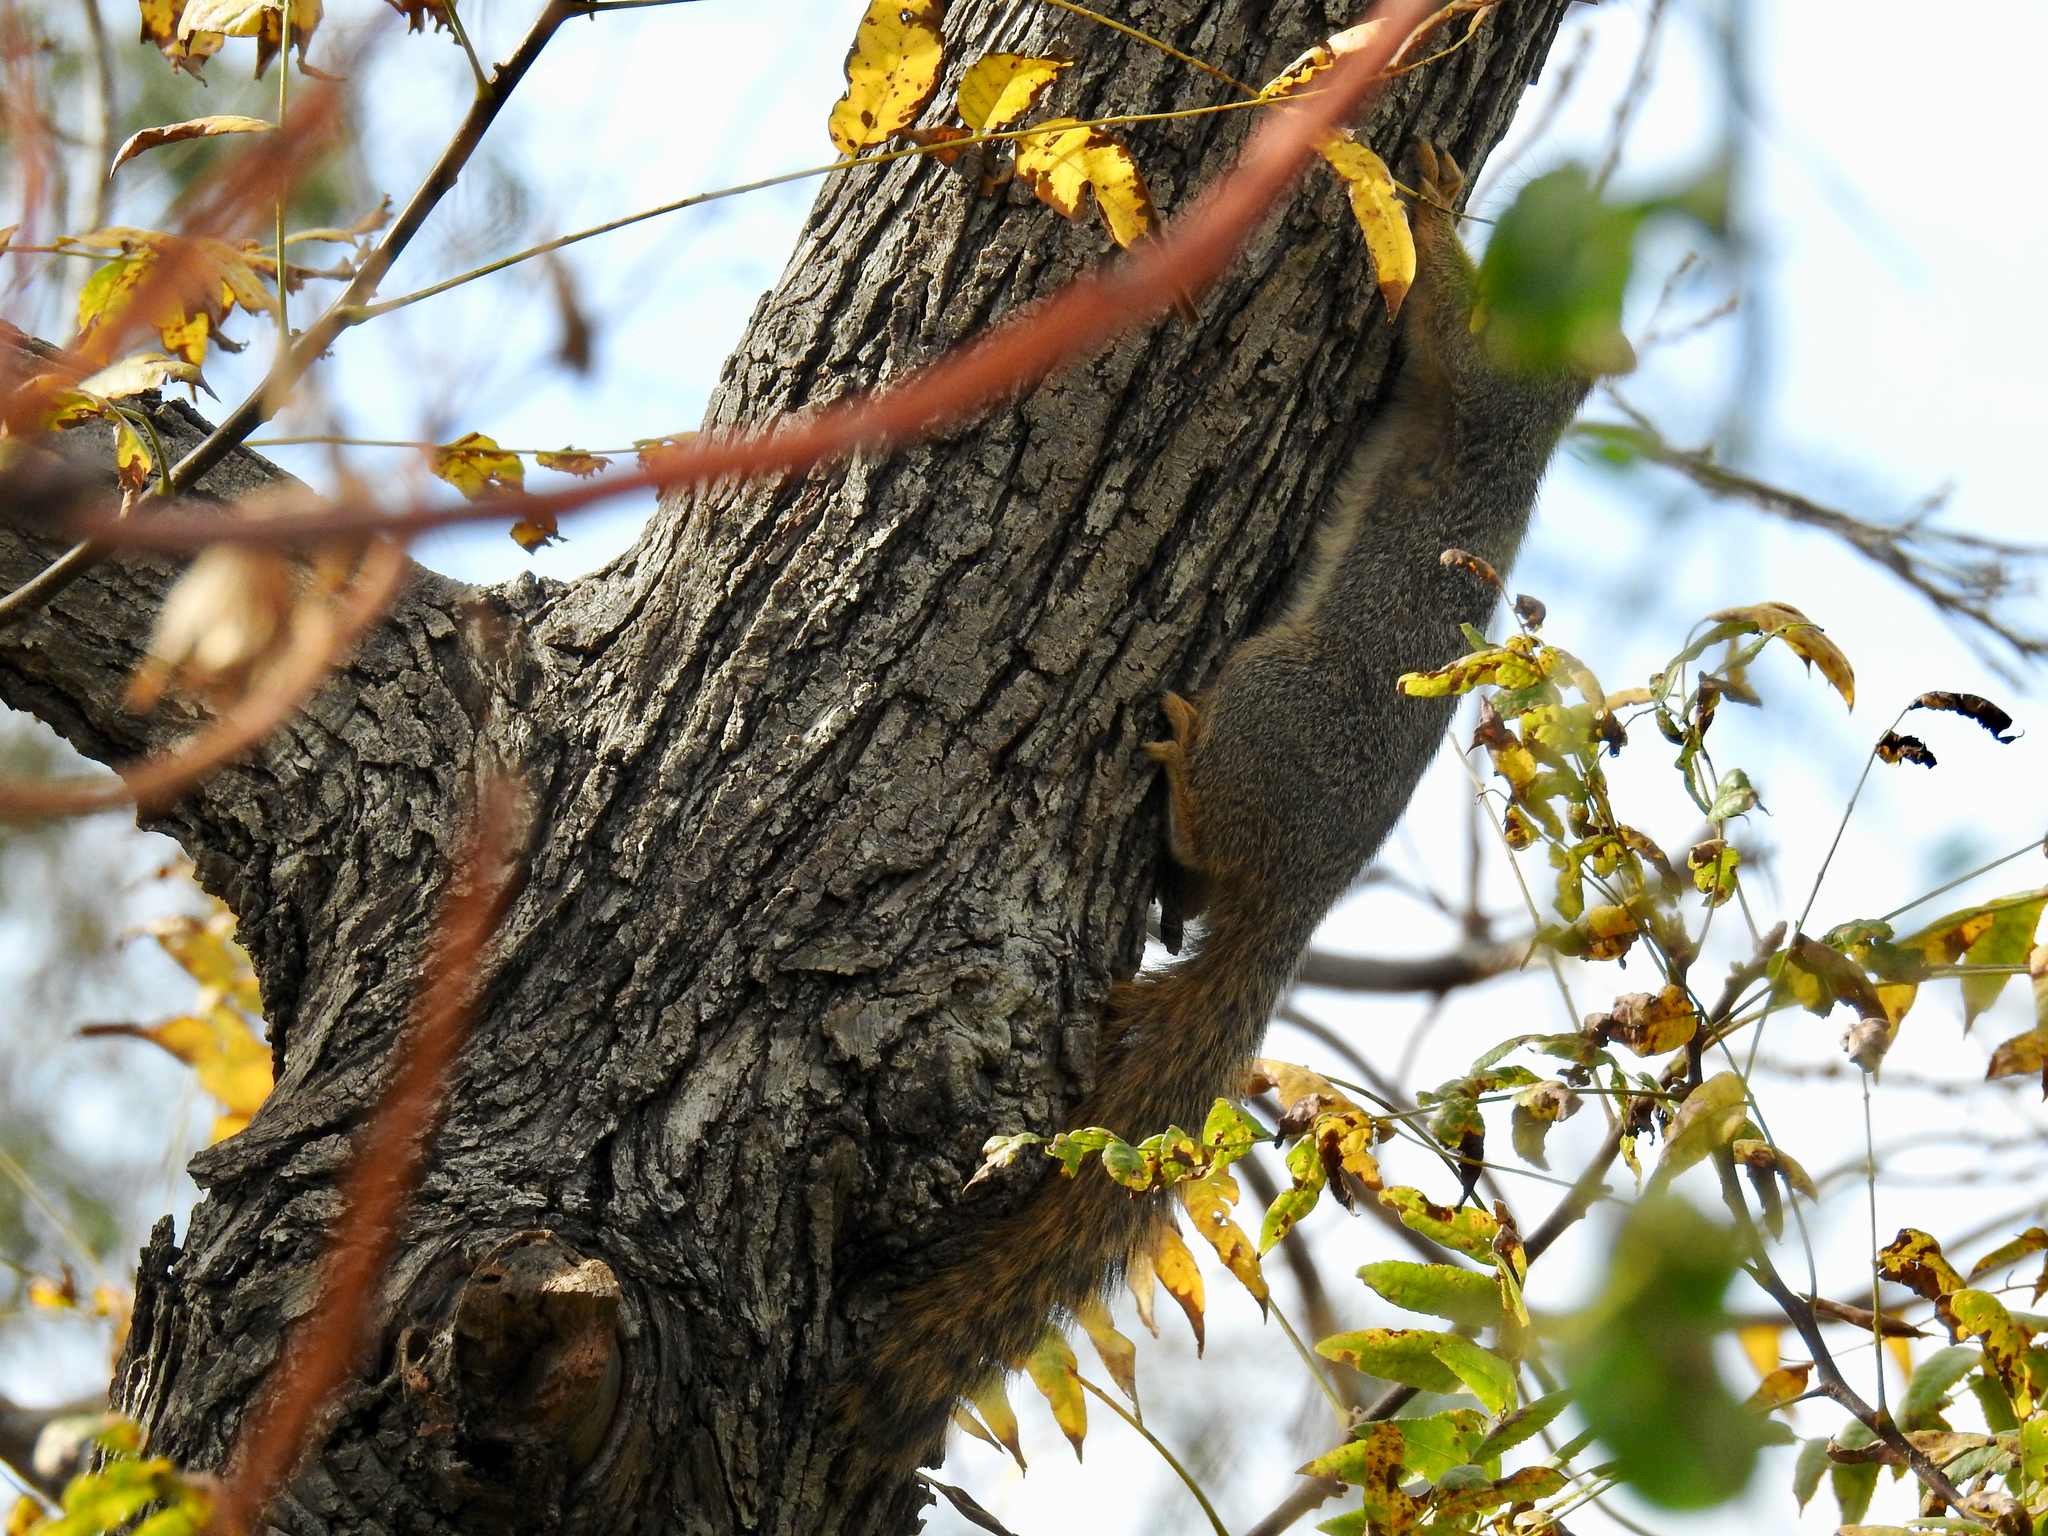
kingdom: Animalia
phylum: Chordata
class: Mammalia
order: Rodentia
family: Sciuridae
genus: Sciurus
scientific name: Sciurus niger
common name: Fox squirrel
